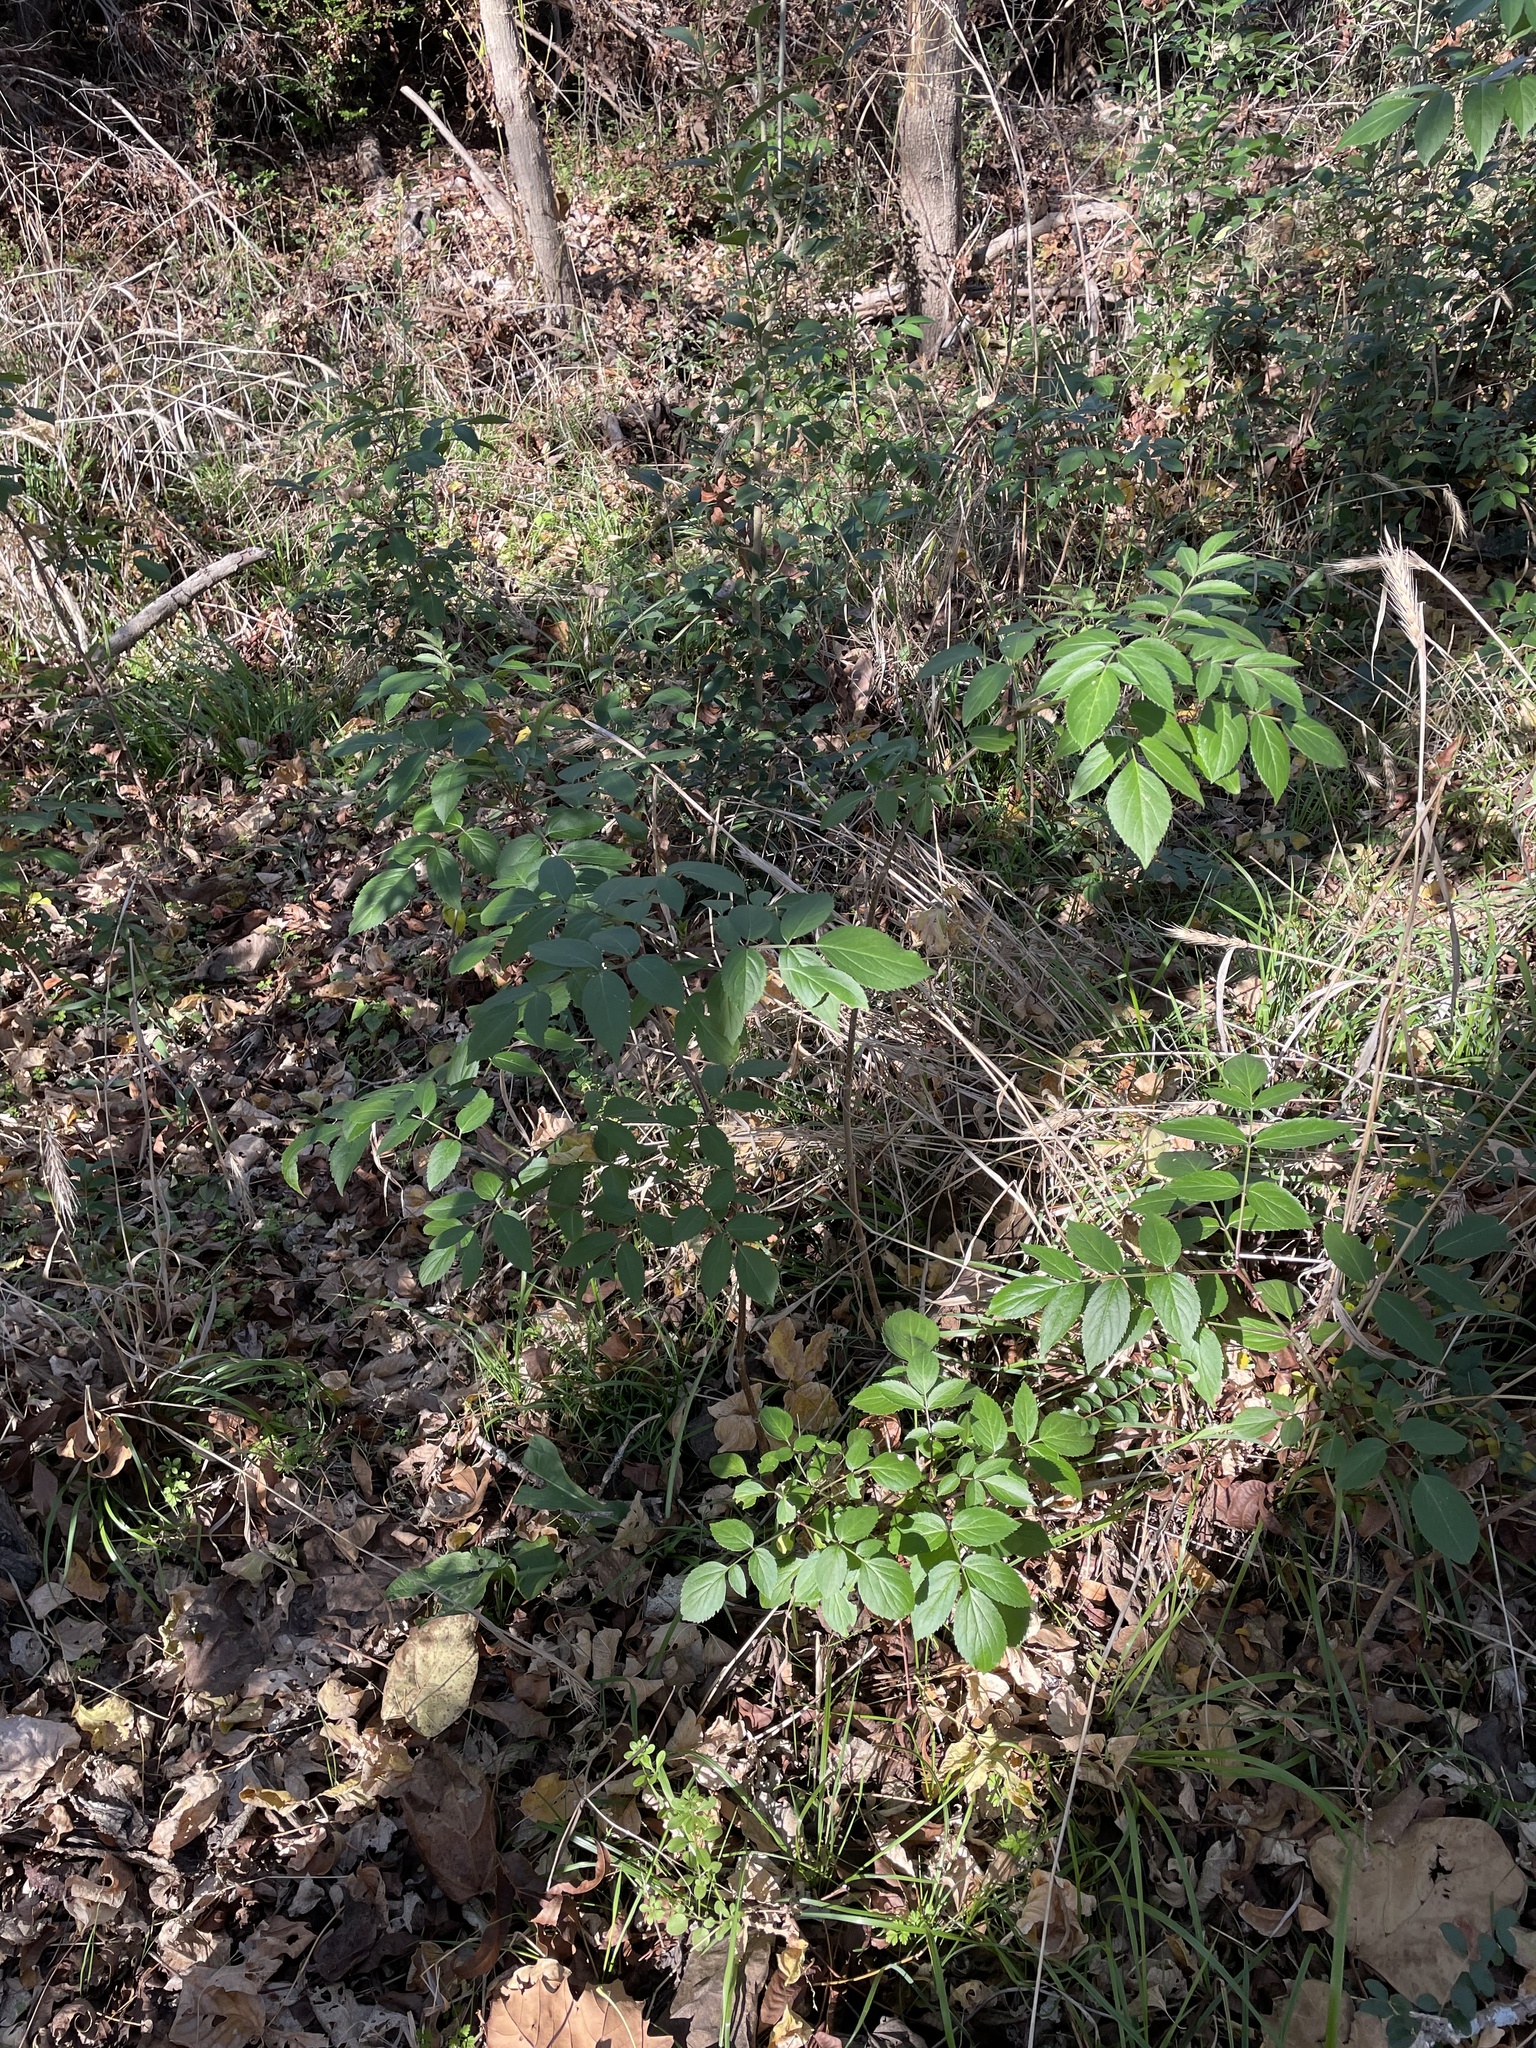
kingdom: Plantae
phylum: Tracheophyta
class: Magnoliopsida
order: Dipsacales
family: Viburnaceae
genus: Sambucus
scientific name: Sambucus canadensis
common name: American elder
